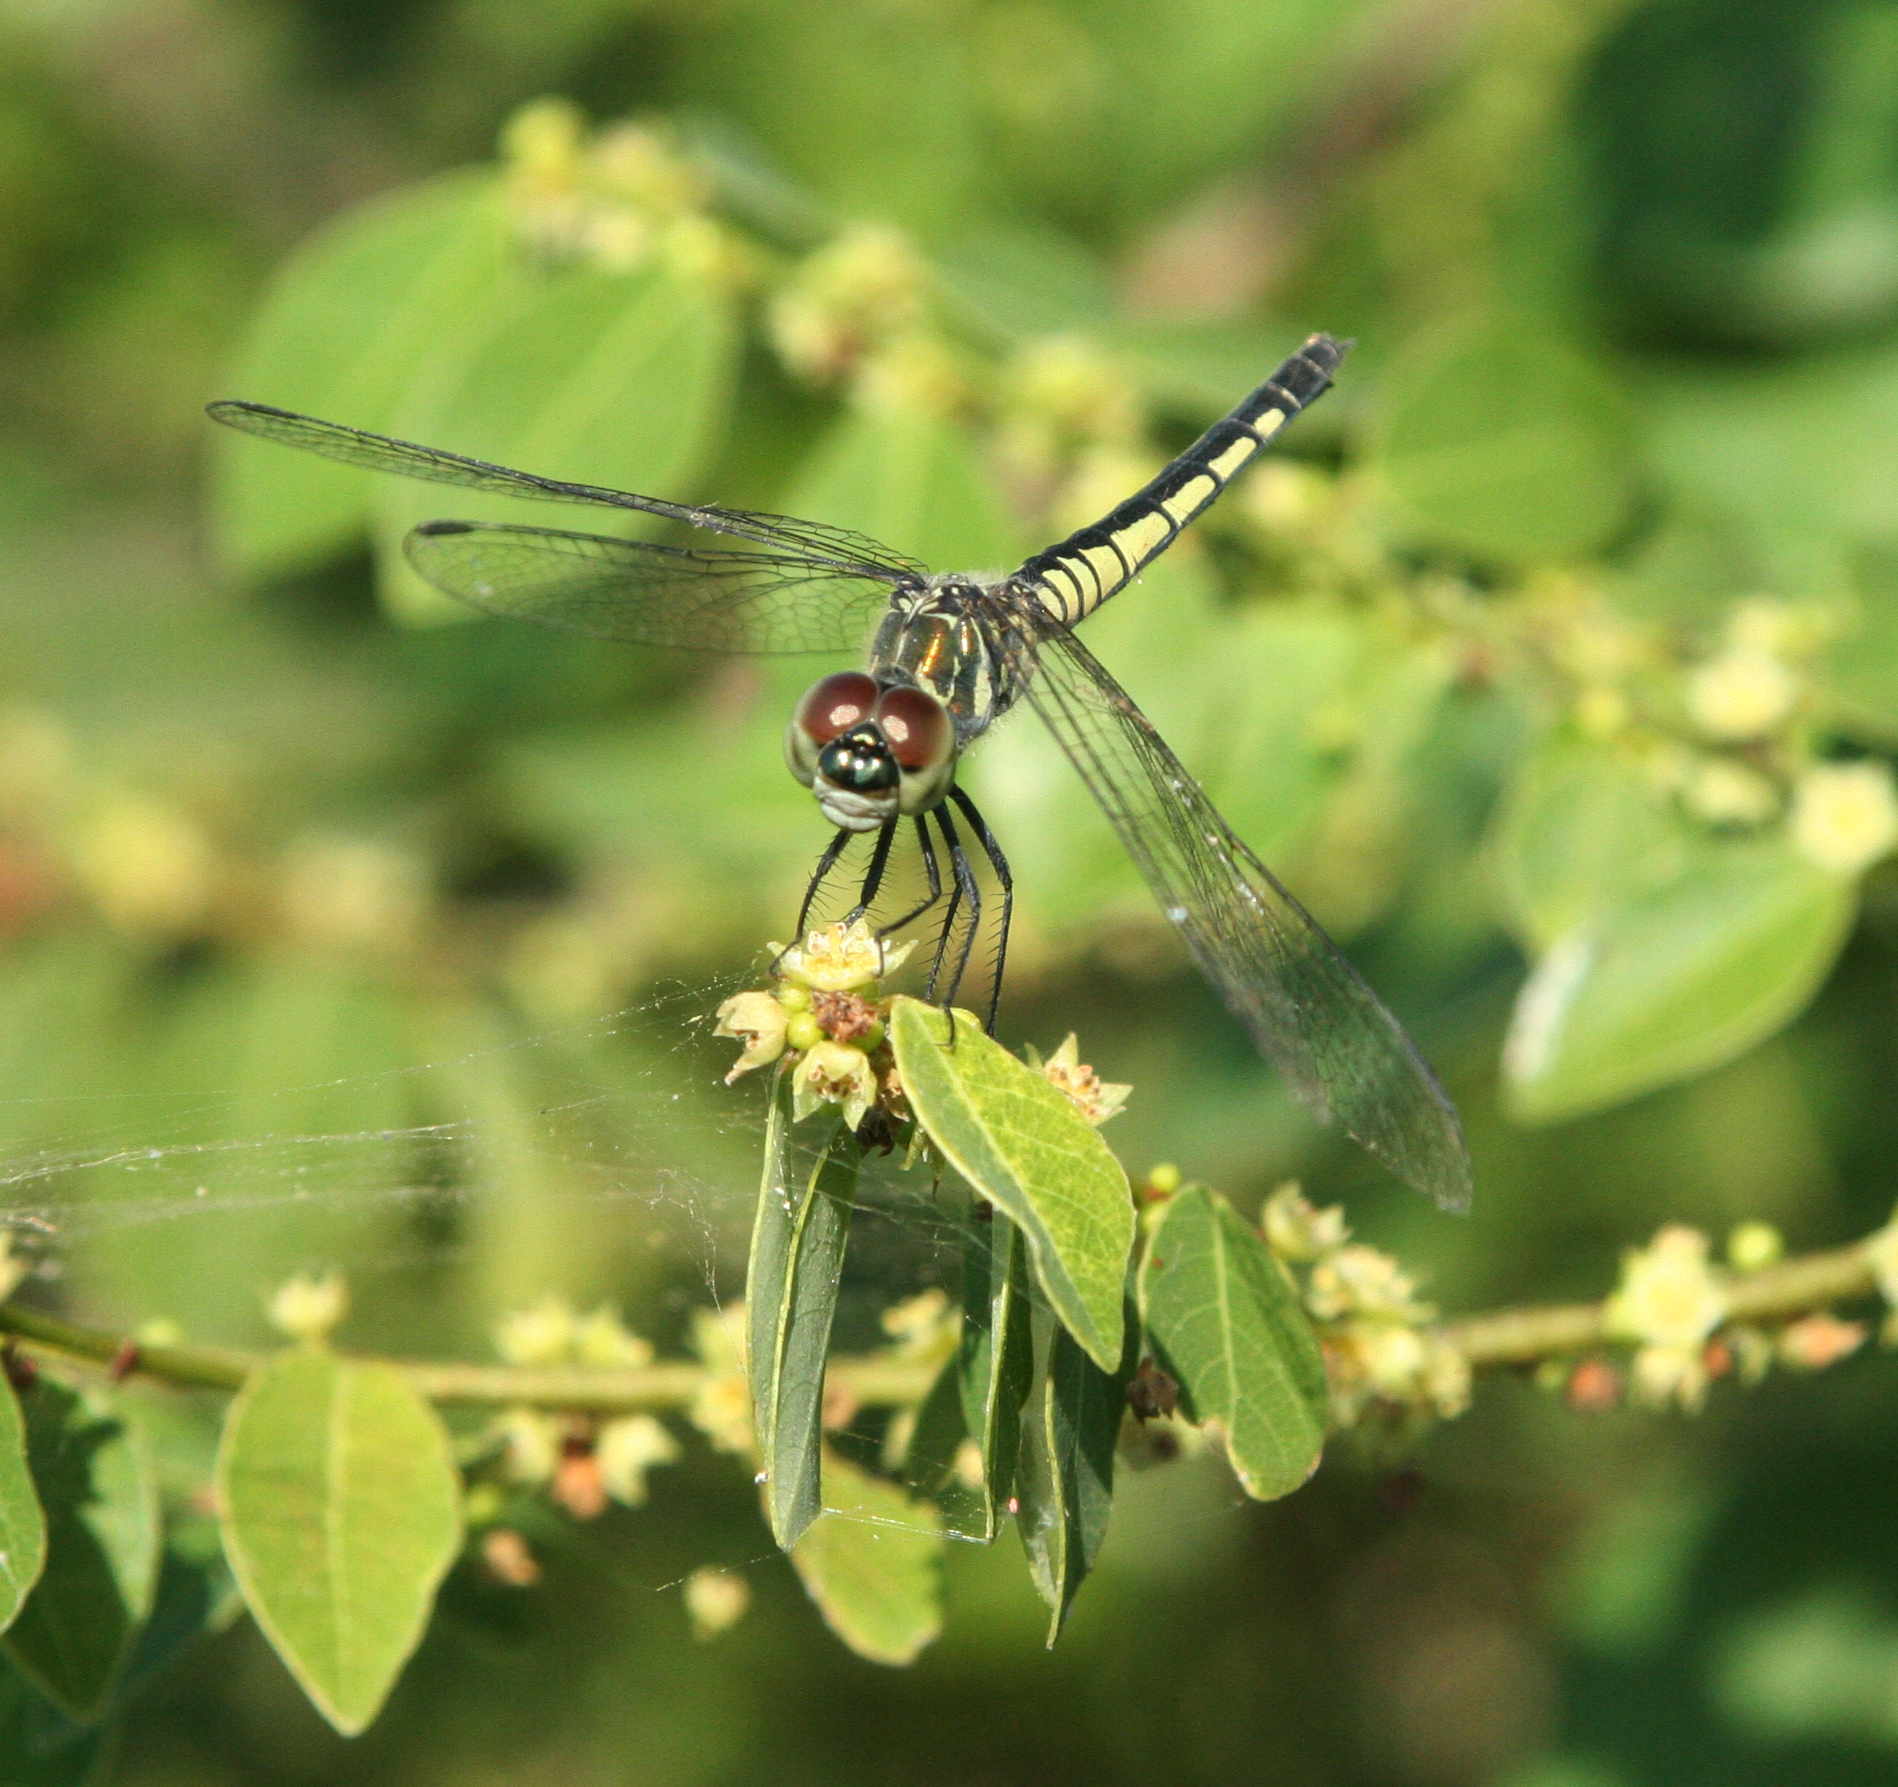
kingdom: Animalia
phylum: Arthropoda
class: Insecta
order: Odonata
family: Libellulidae
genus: Brachydiplax
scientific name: Brachydiplax sobrina
